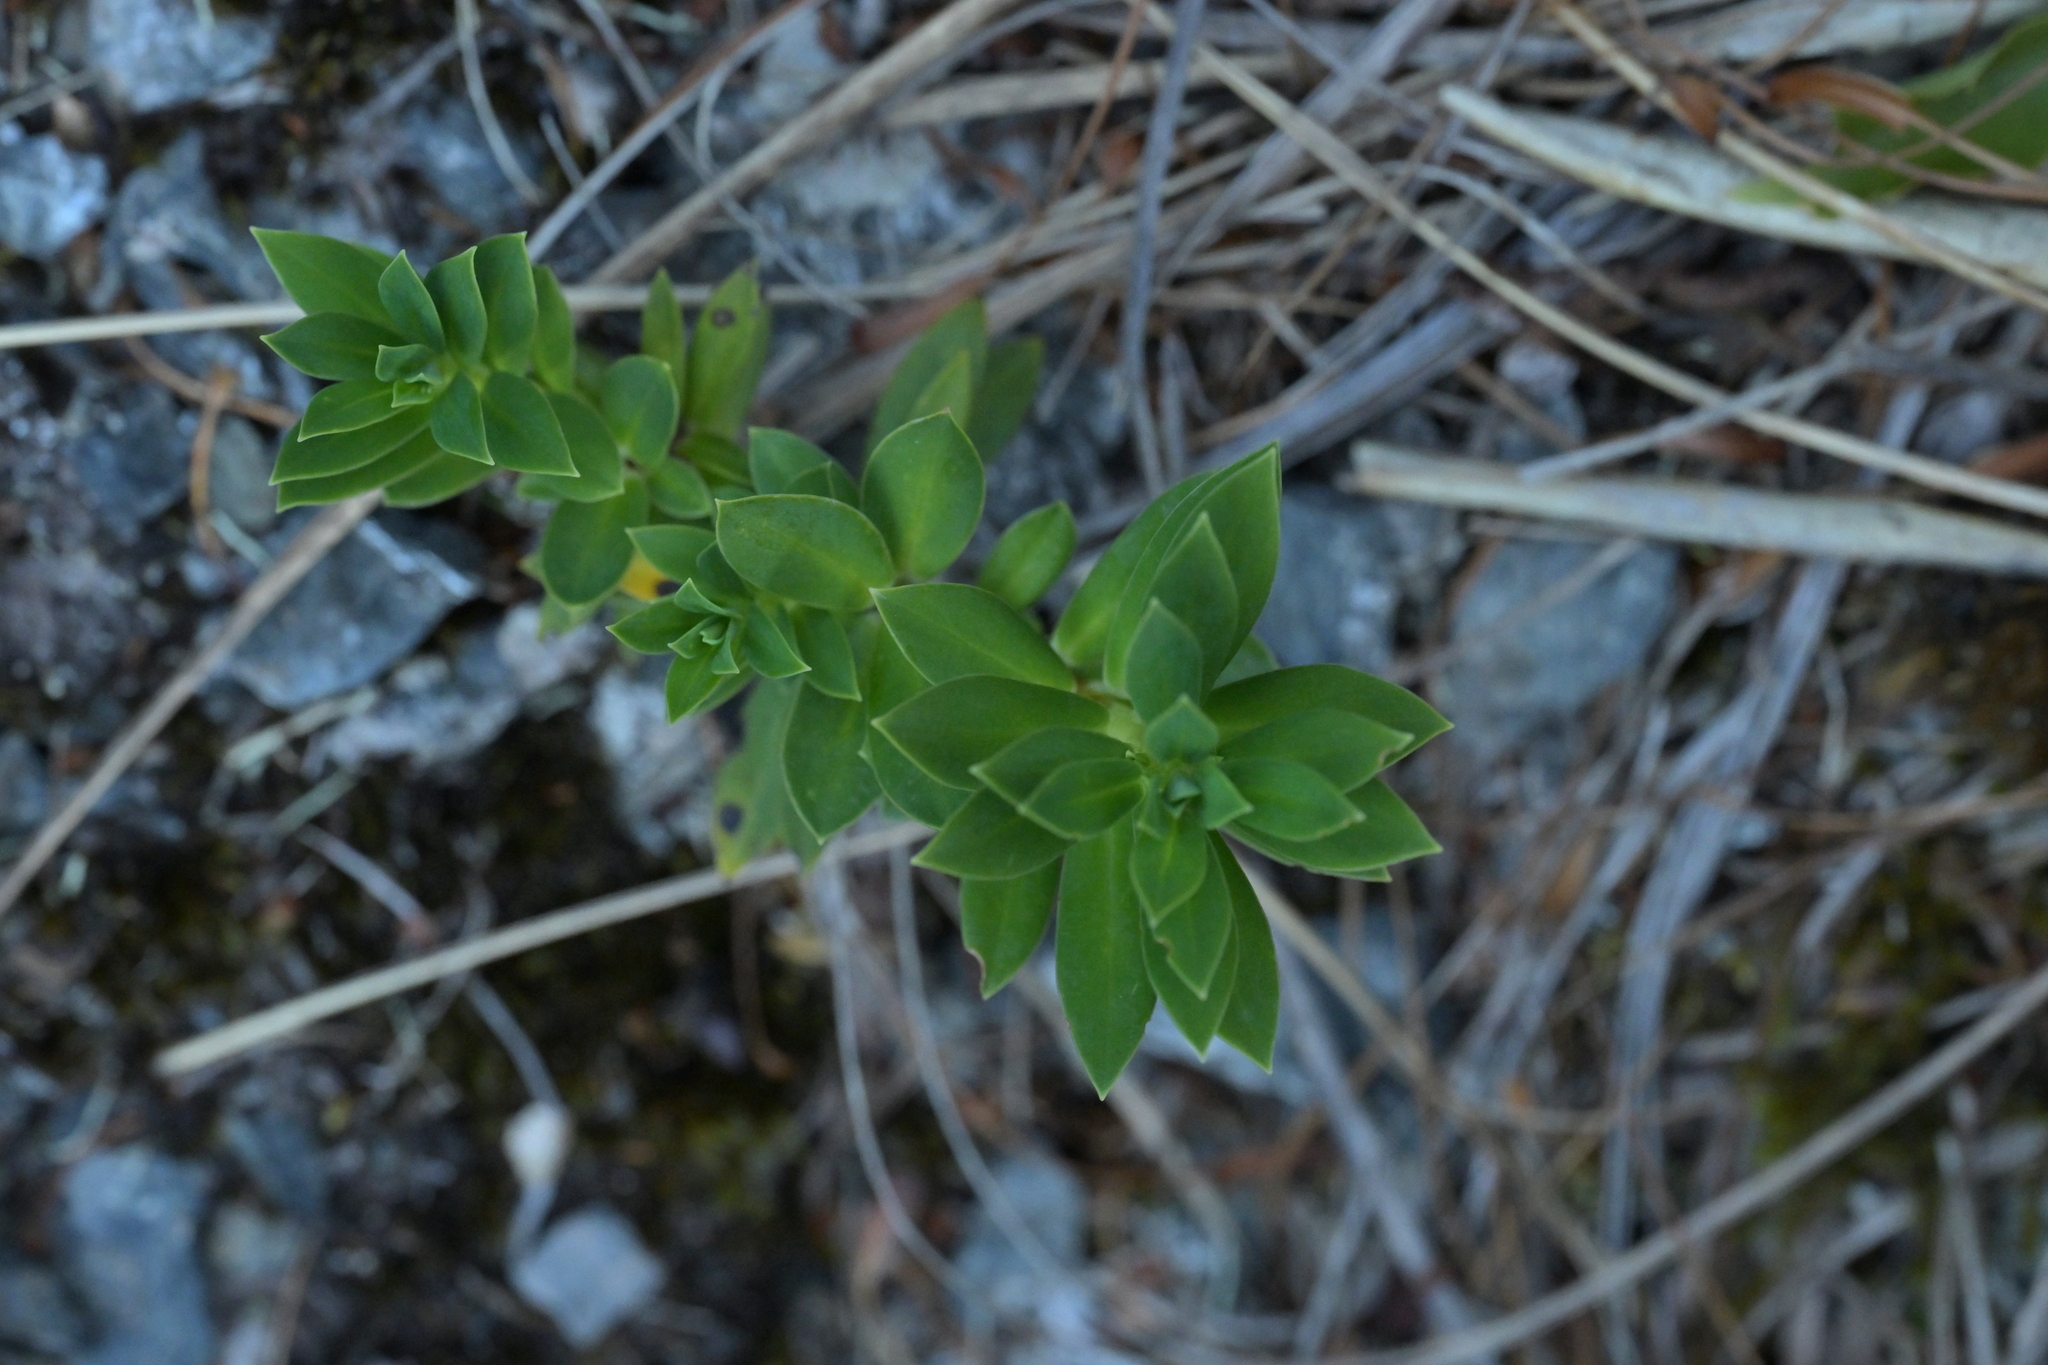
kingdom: Plantae
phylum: Tracheophyta
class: Magnoliopsida
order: Malvales
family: Thymelaeaceae
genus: Pimelea
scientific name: Pimelea gnidia
